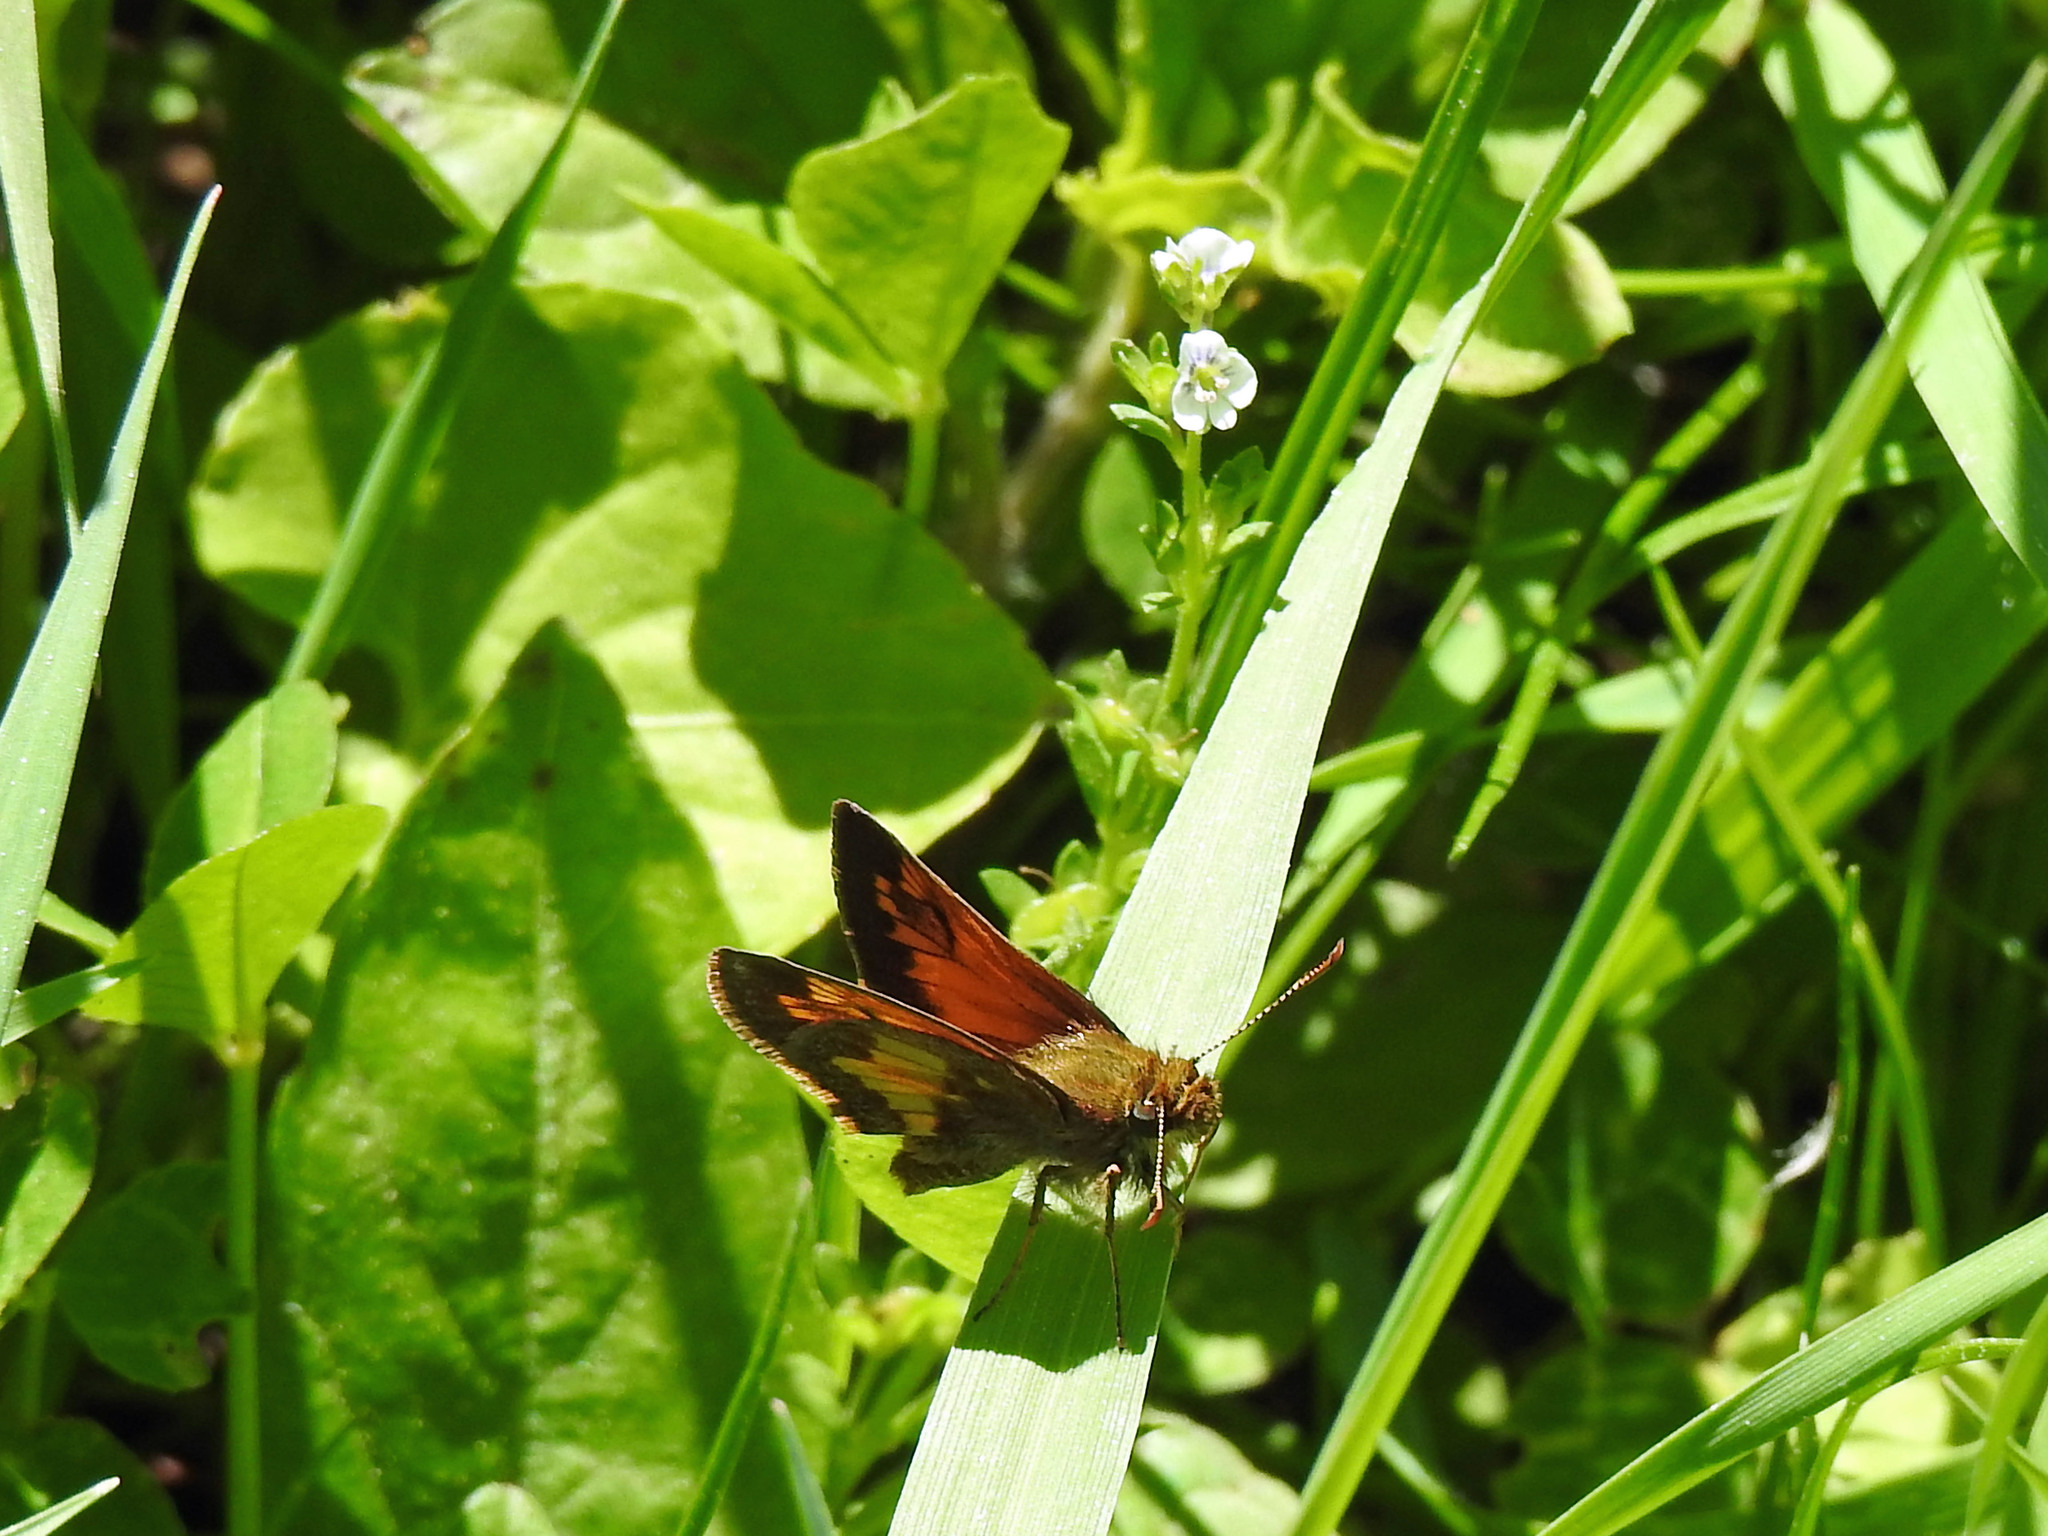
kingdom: Animalia
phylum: Arthropoda
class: Insecta
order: Lepidoptera
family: Hesperiidae
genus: Lon
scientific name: Lon hobomok
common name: Hobomok skipper
